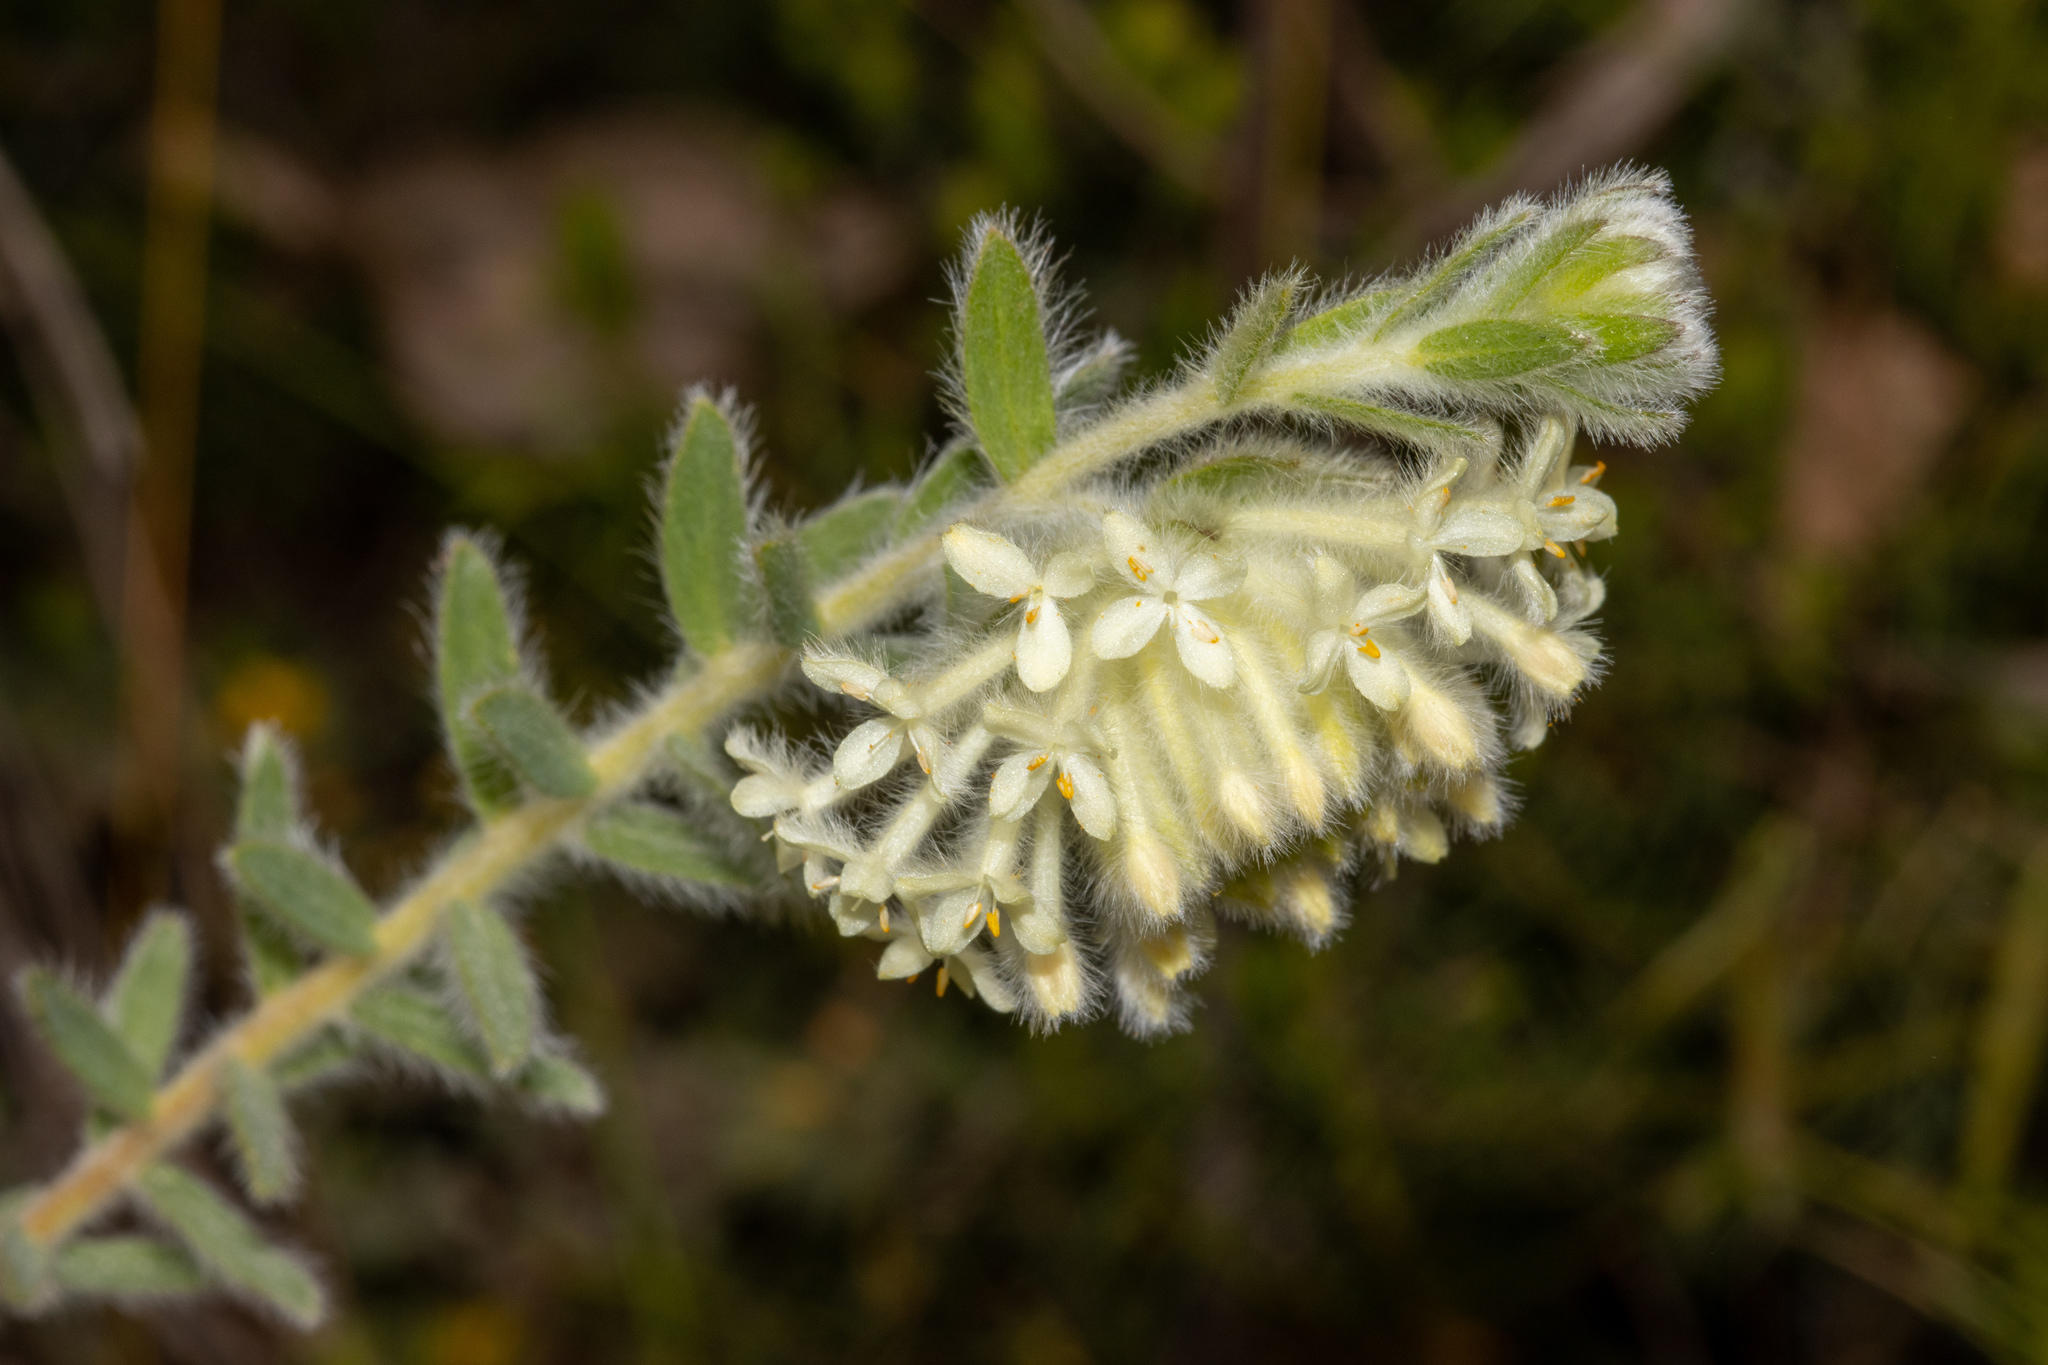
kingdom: Plantae
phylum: Tracheophyta
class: Magnoliopsida
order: Malvales
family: Thymelaeaceae
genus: Pimelea
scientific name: Pimelea octophylla
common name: Woolly riceflower
